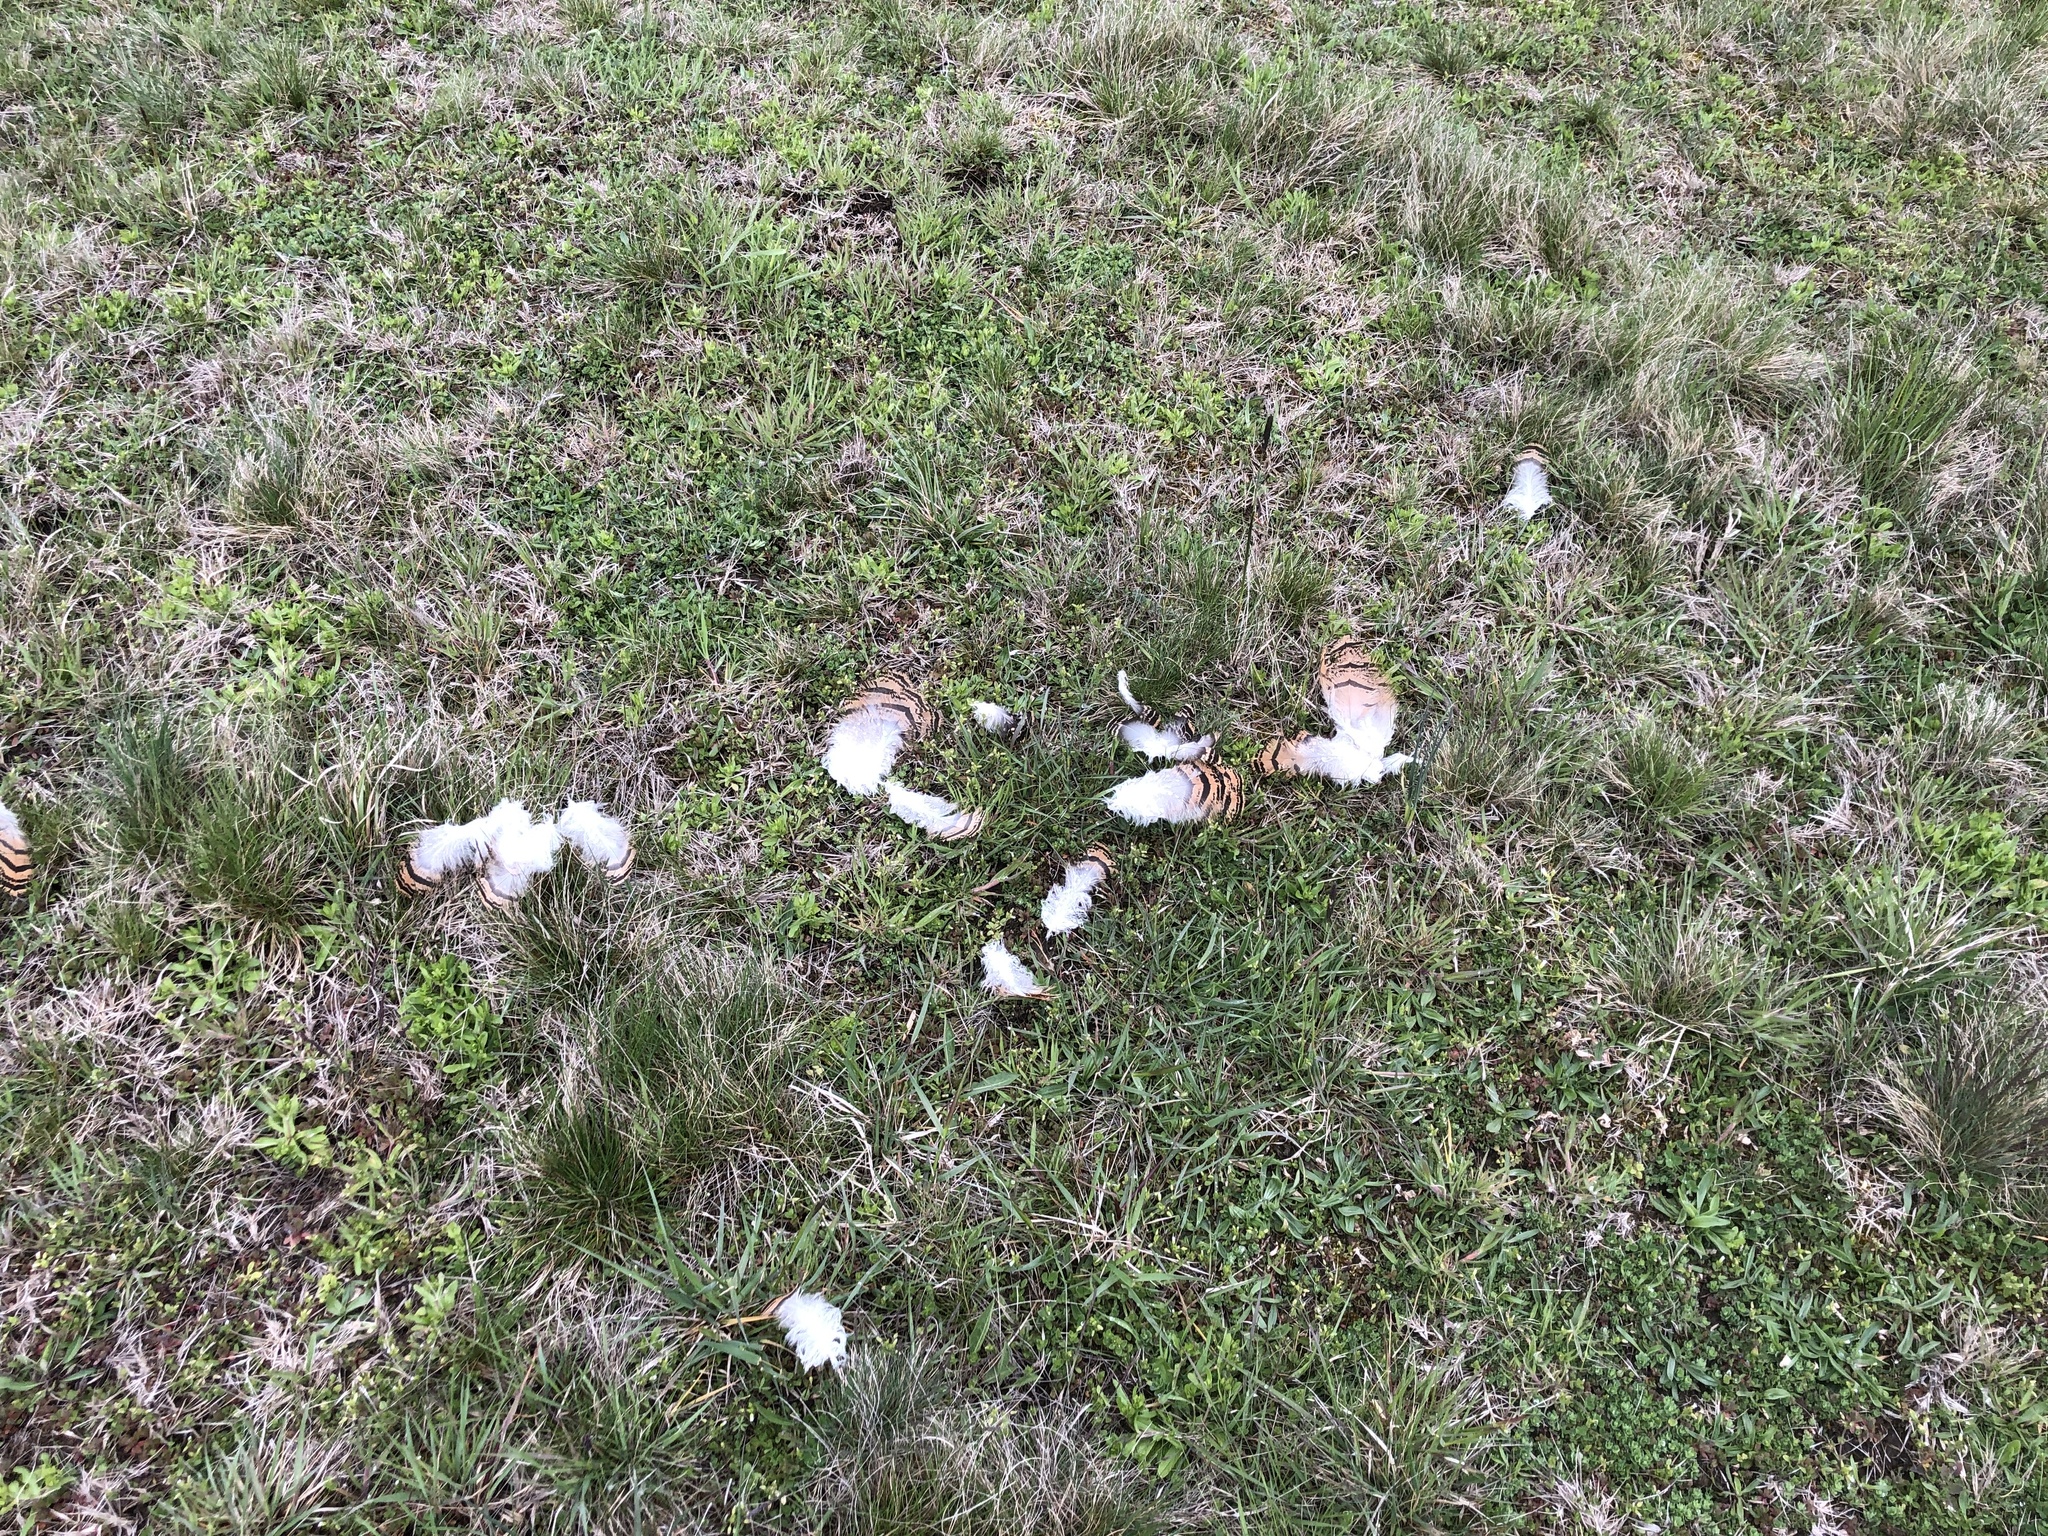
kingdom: Animalia
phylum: Chordata
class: Aves
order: Otidiformes
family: Otididae
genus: Otis
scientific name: Otis tarda
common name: Great bustard
